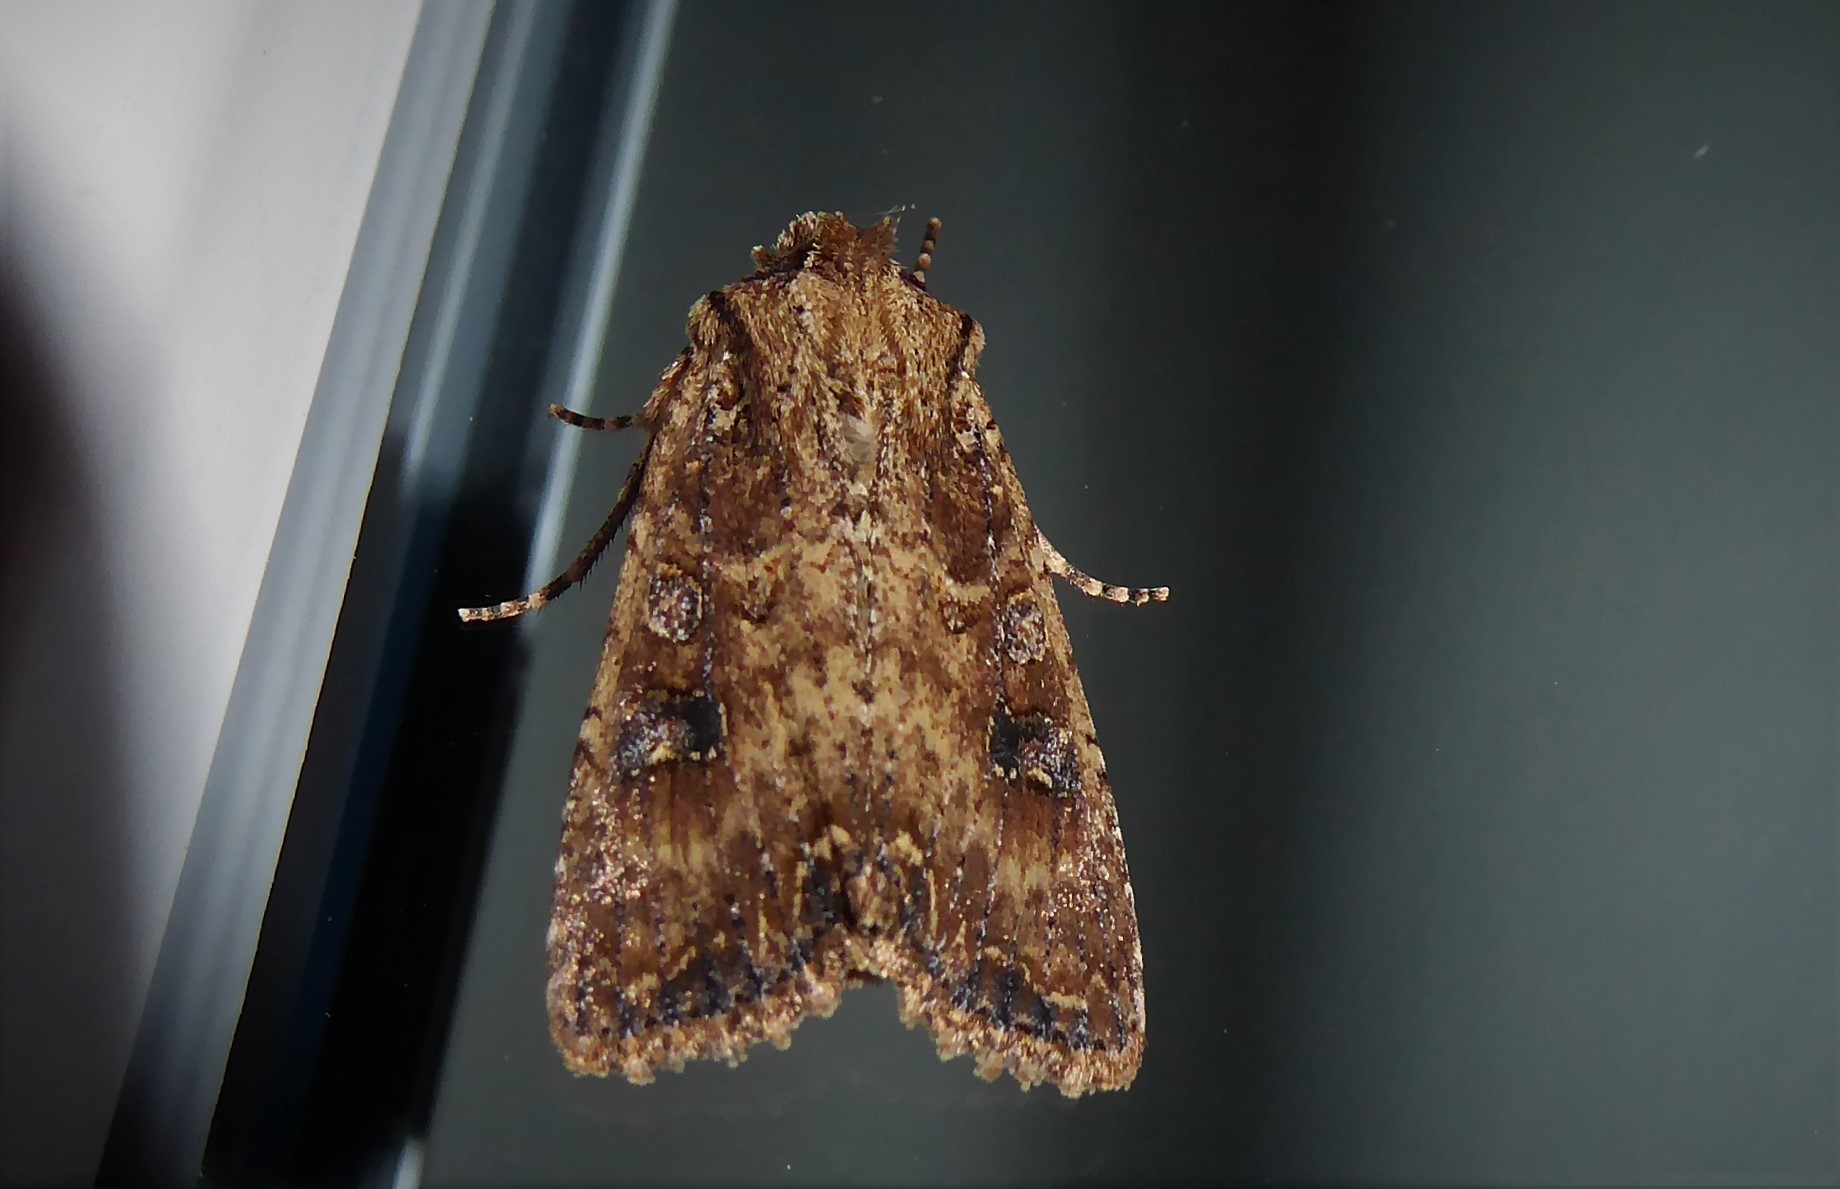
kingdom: Animalia
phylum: Arthropoda
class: Insecta
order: Lepidoptera
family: Noctuidae
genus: Ichneutica
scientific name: Ichneutica morosa
